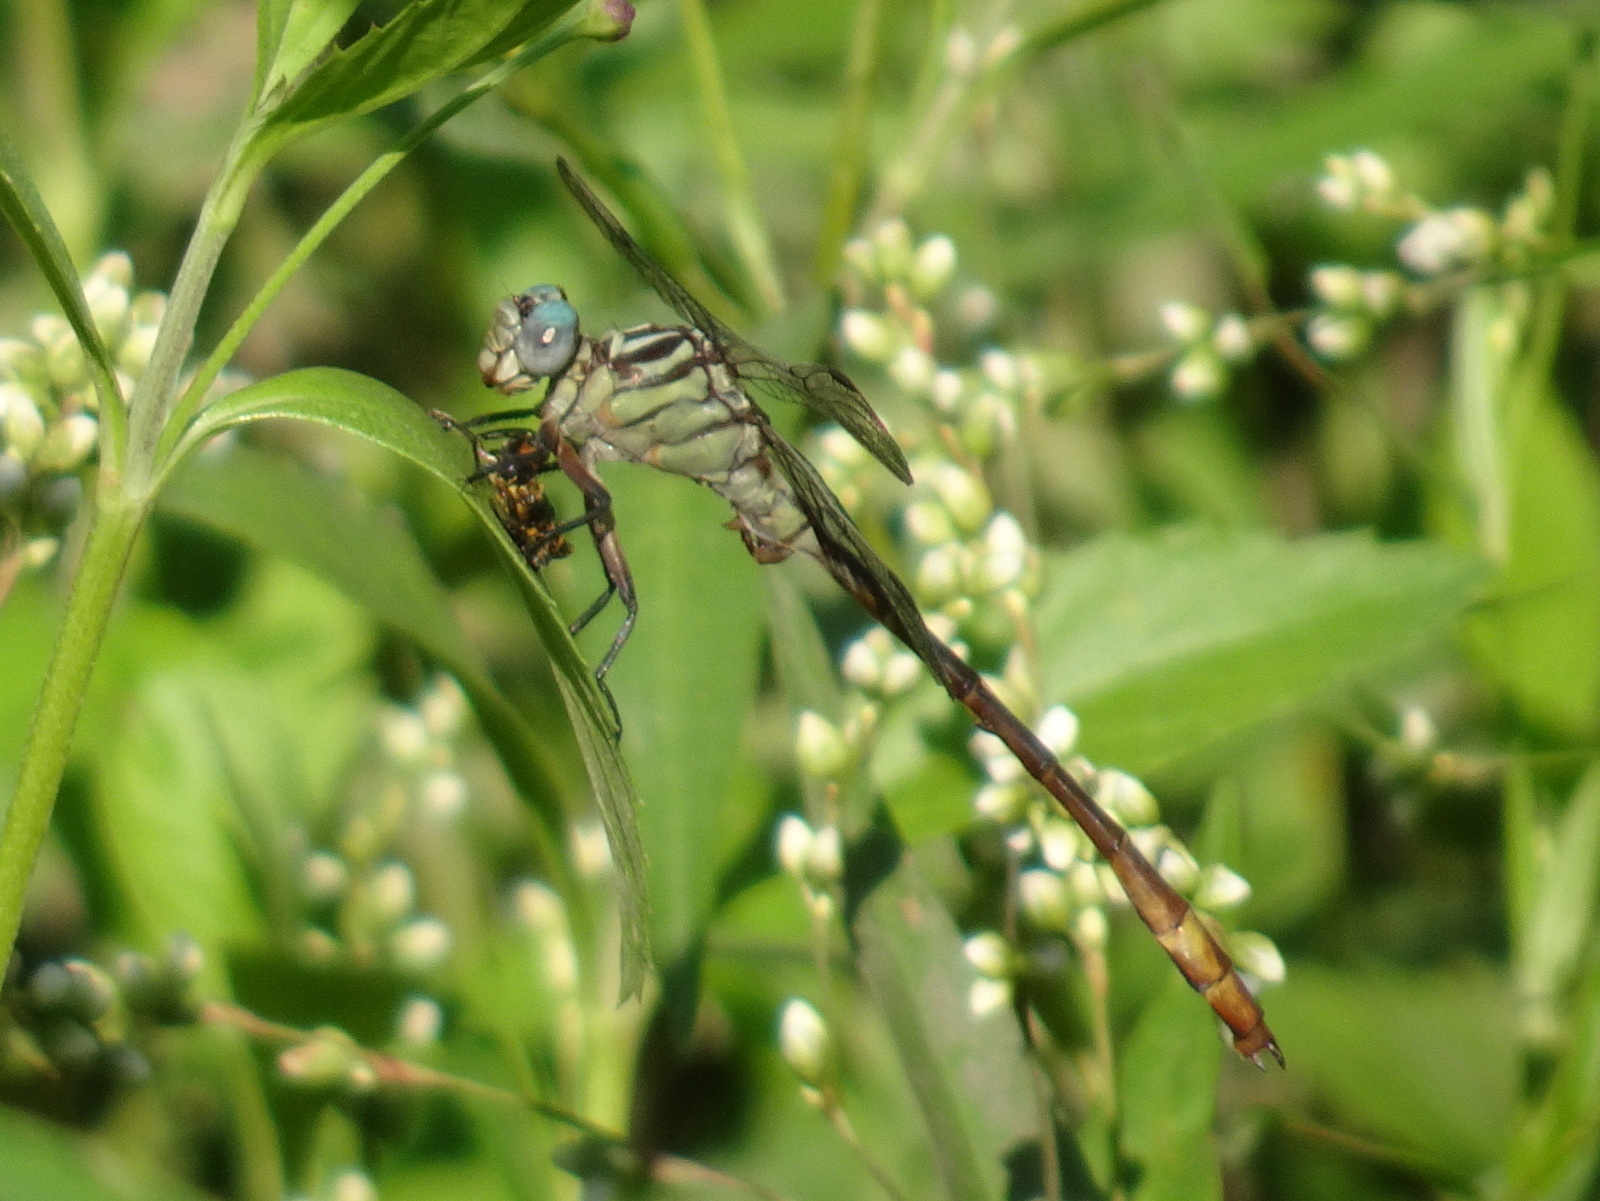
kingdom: Animalia
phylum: Arthropoda
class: Insecta
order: Odonata
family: Gomphidae
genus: Stylurus
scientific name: Stylurus plagiatus
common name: Russet-tipped clubtail
